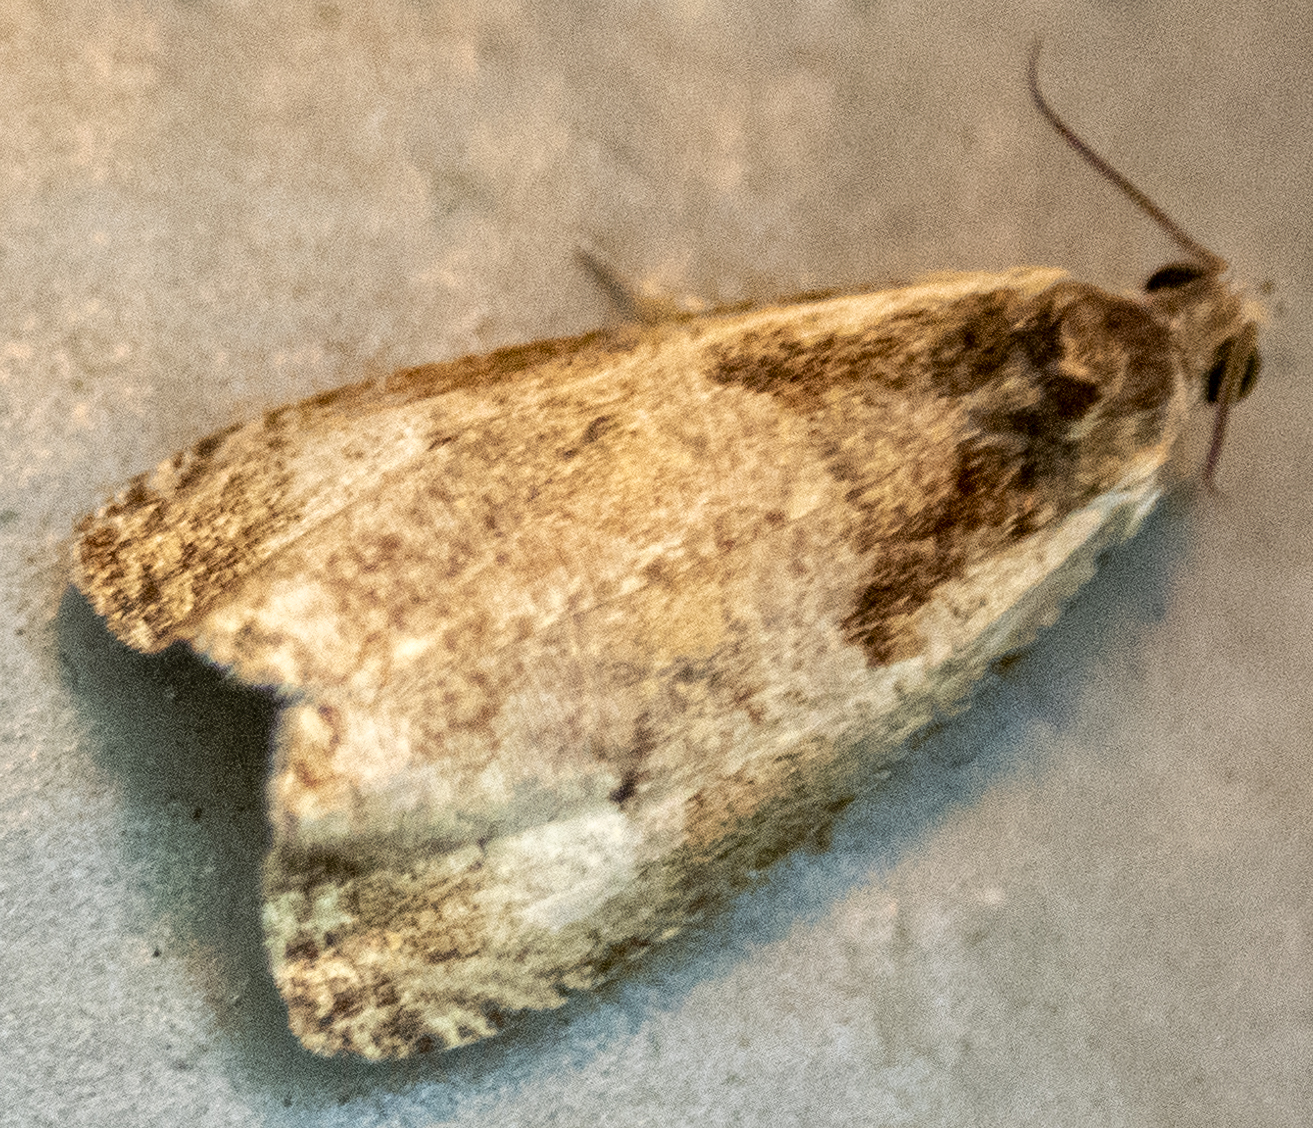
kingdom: Animalia
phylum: Arthropoda
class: Insecta
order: Lepidoptera
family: Tortricidae
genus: Olethreutes
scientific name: Olethreutes punctanum
